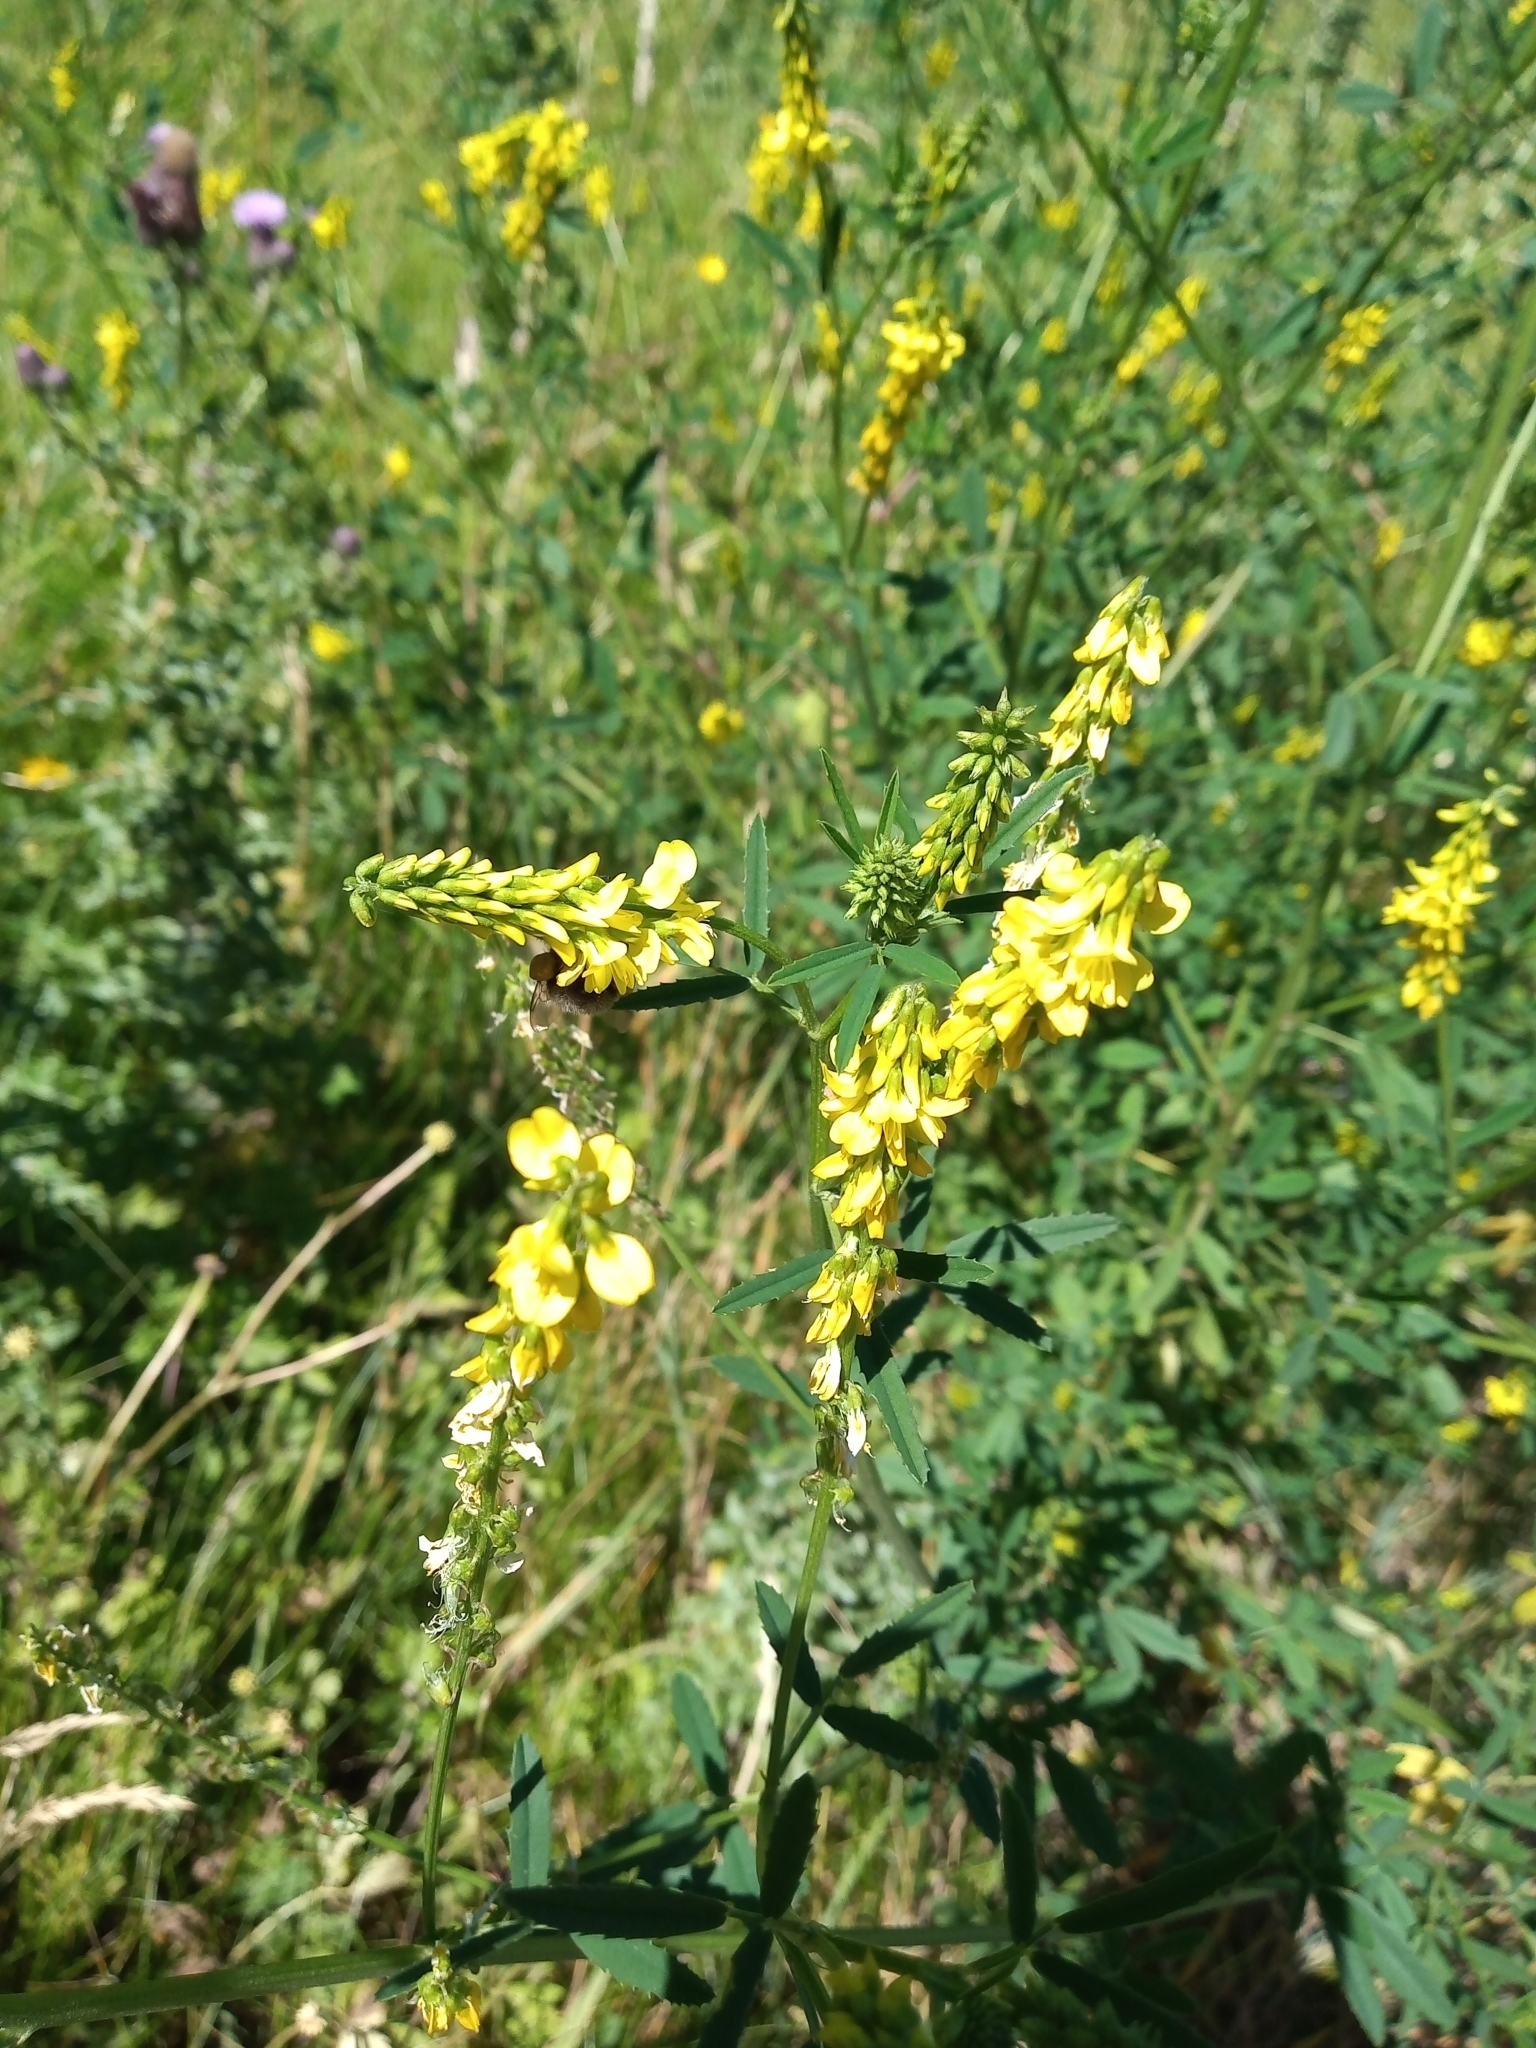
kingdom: Plantae
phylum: Tracheophyta
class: Magnoliopsida
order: Fabales
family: Fabaceae
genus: Melilotus
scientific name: Melilotus officinalis
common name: Sweetclover
